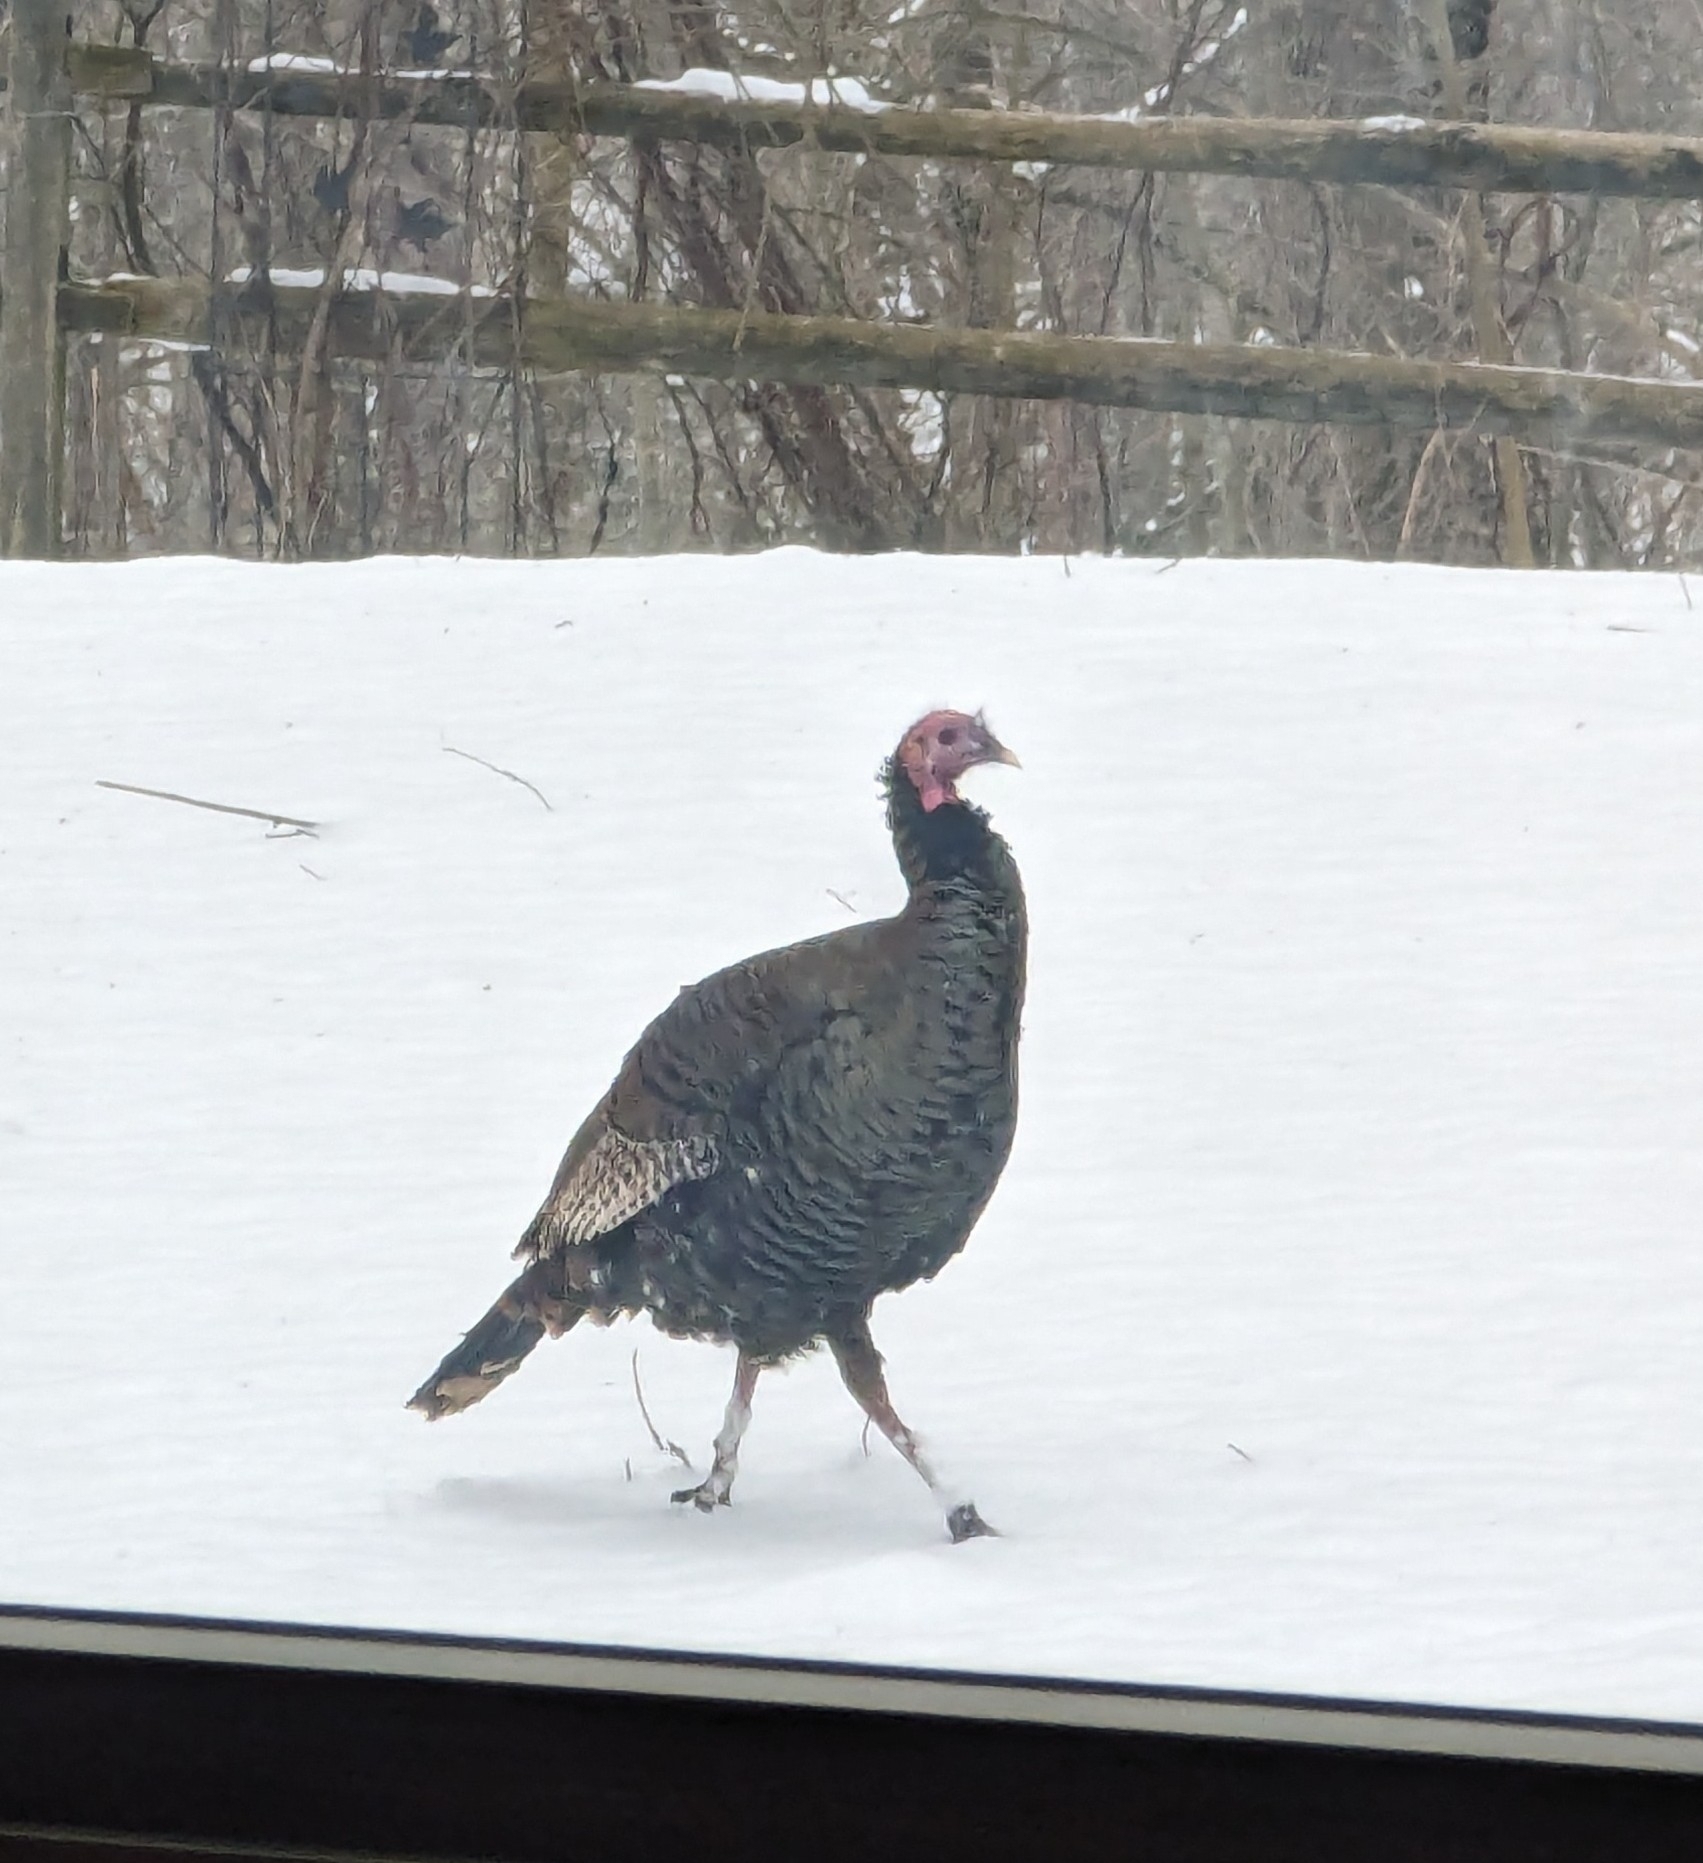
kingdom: Animalia
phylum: Chordata
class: Aves
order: Galliformes
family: Phasianidae
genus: Meleagris
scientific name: Meleagris gallopavo
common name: Wild turkey
